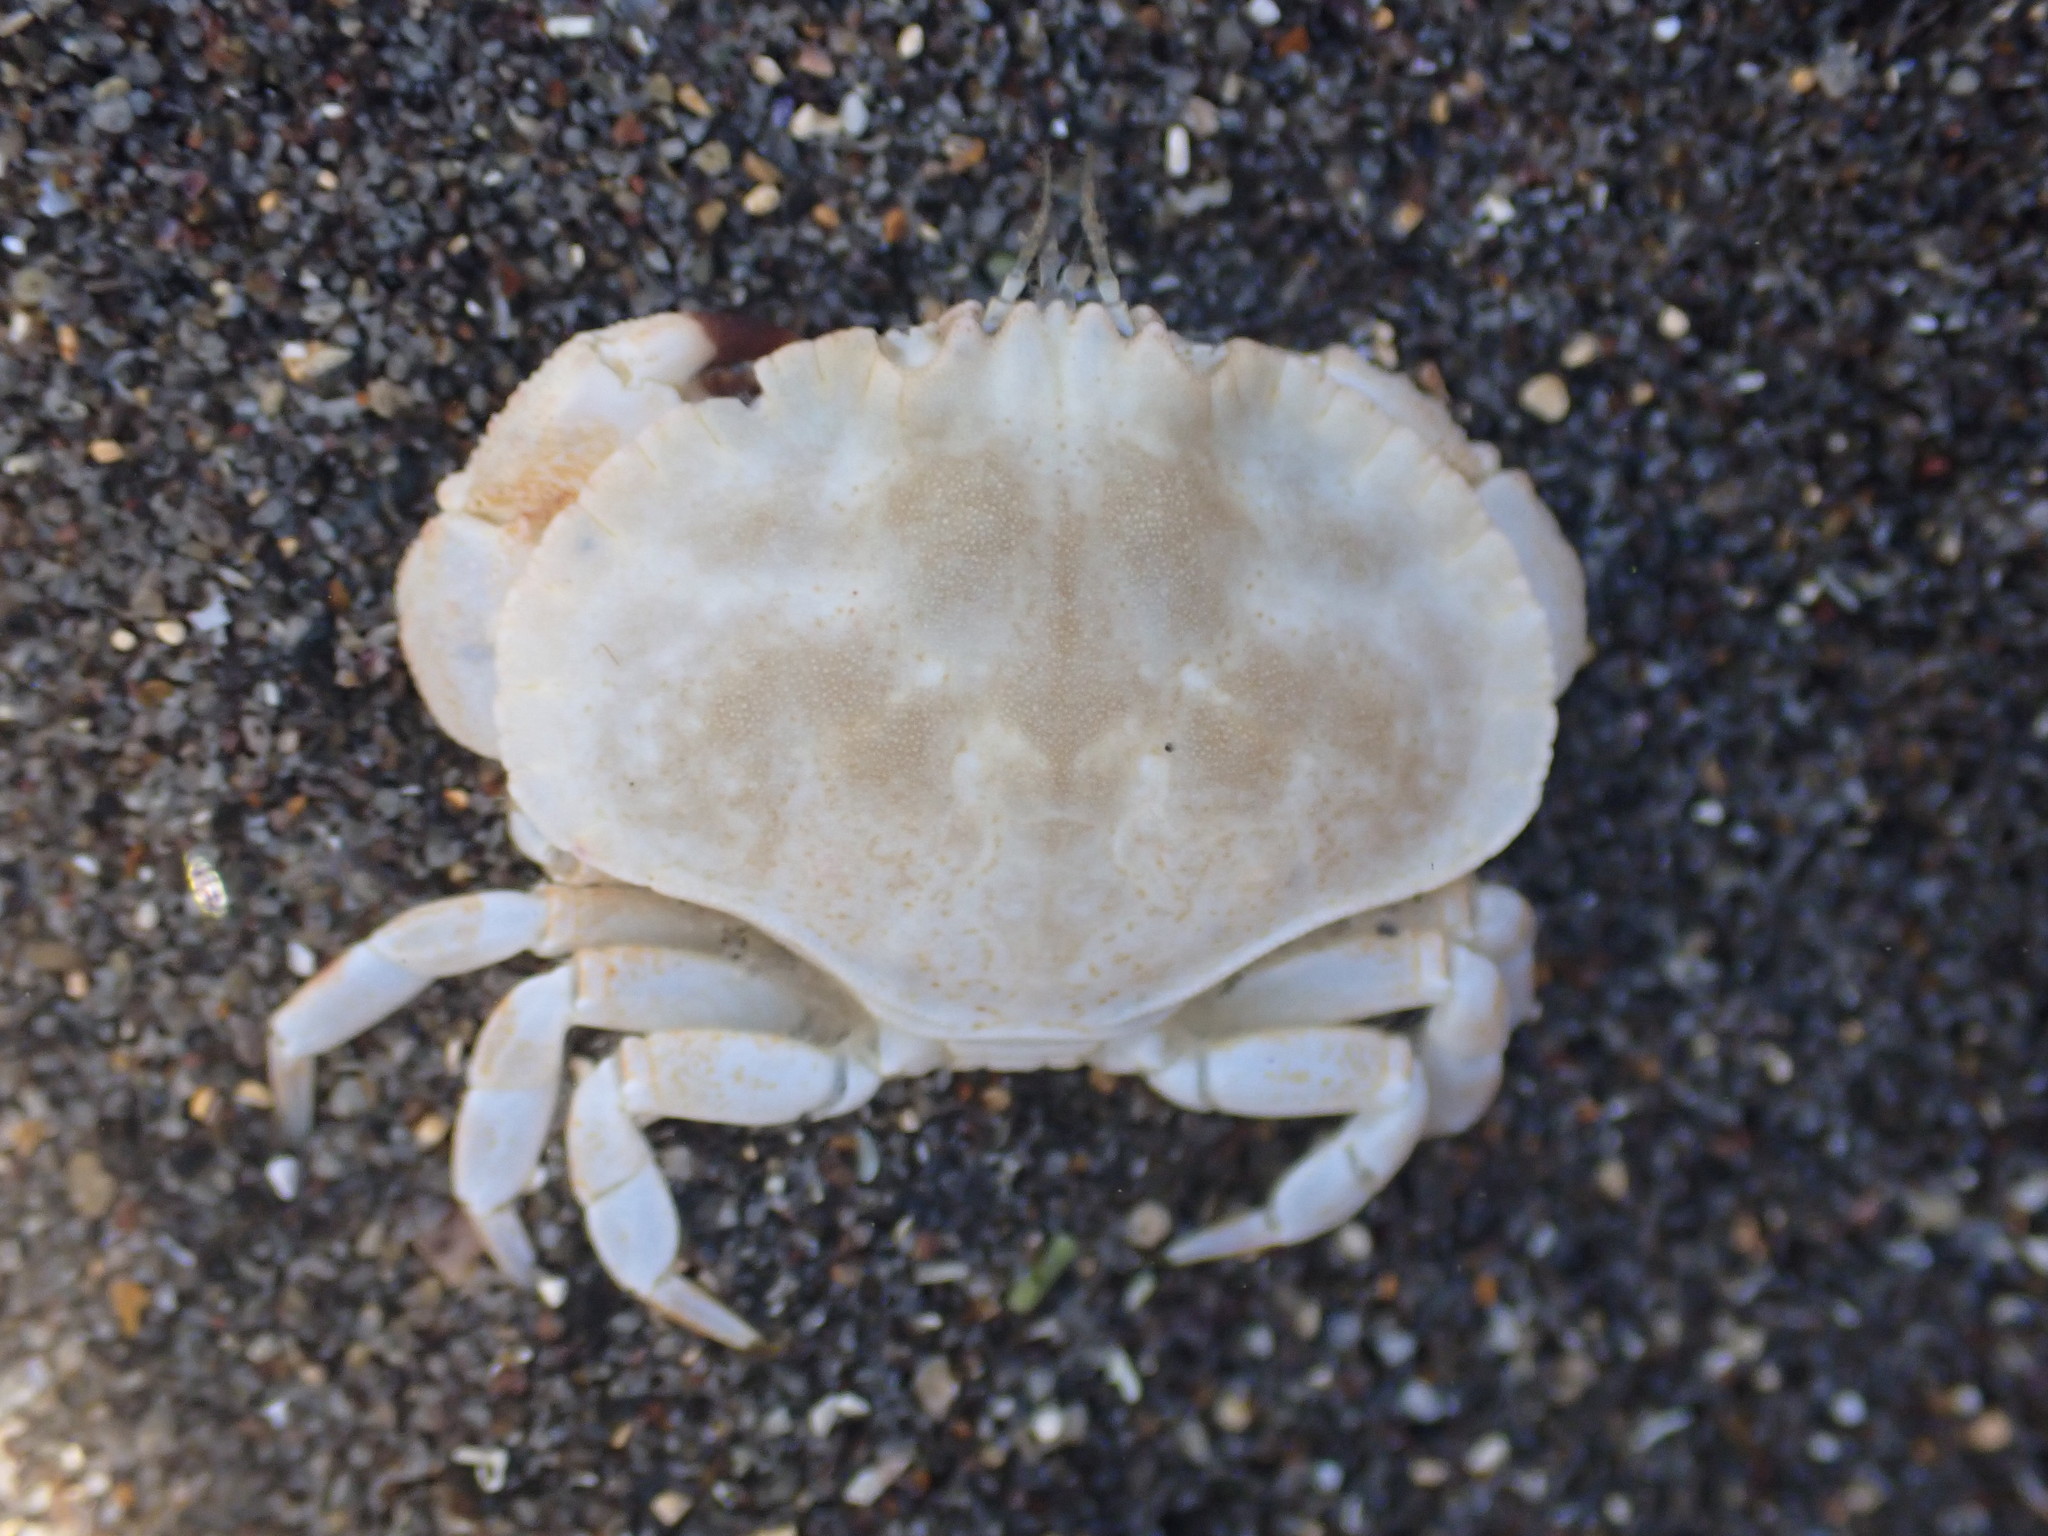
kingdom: Animalia
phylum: Arthropoda
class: Malacostraca
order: Decapoda
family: Cancridae
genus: Metacarcinus
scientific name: Metacarcinus novaezelandiae
